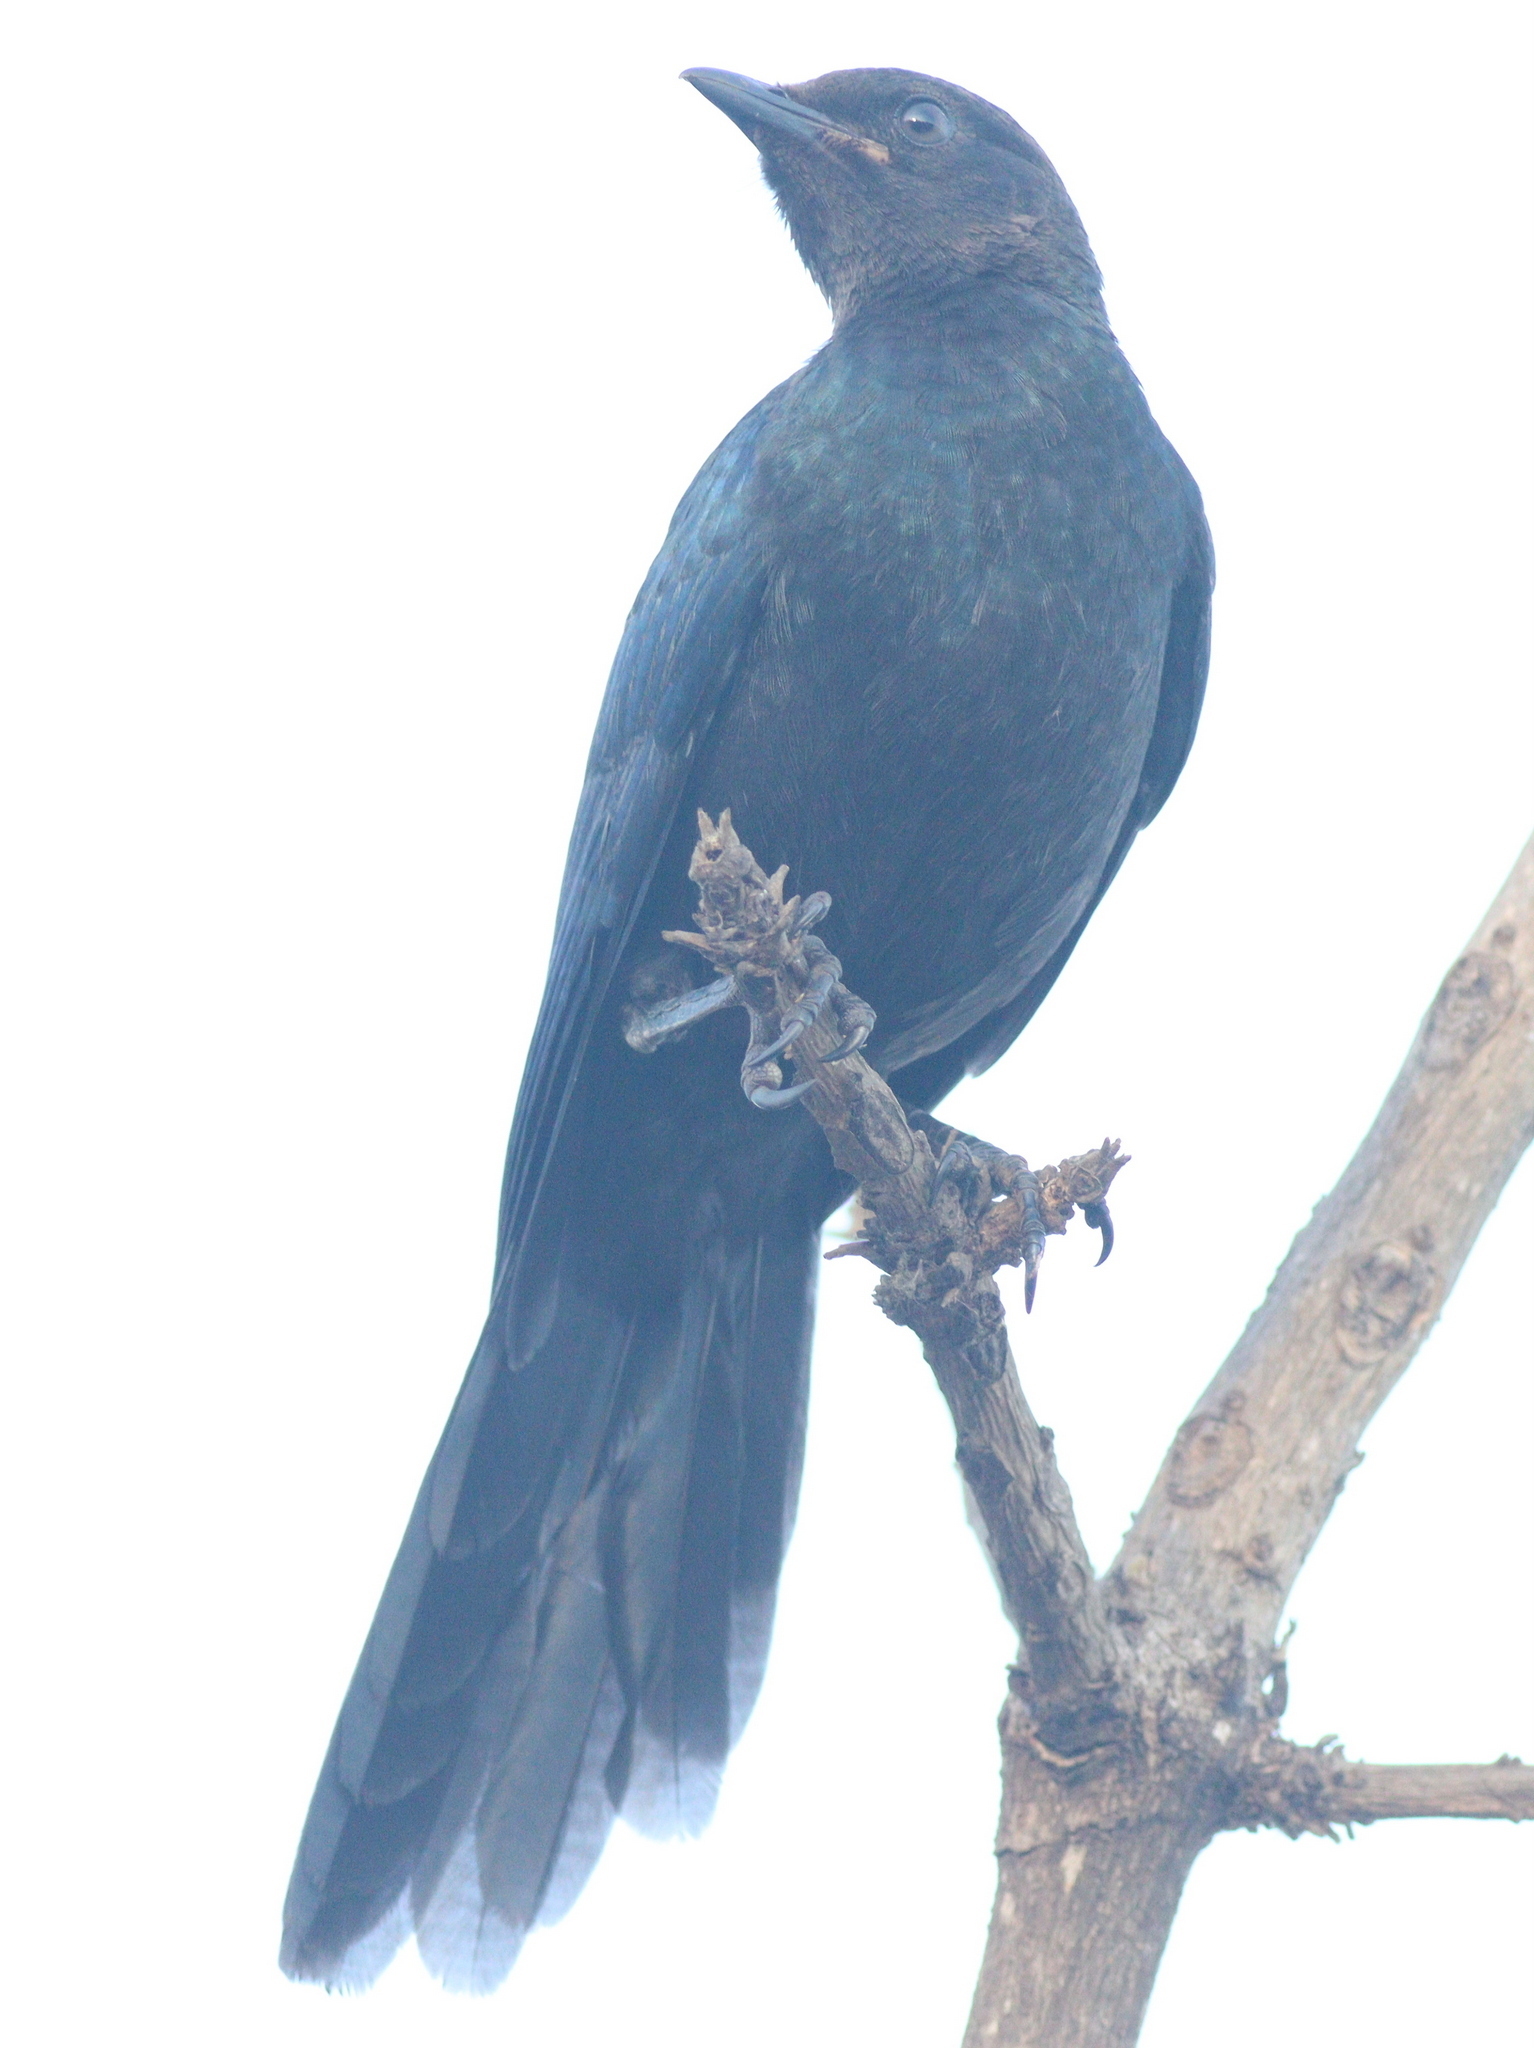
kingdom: Animalia
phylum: Chordata
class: Aves
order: Passeriformes
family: Campephagidae
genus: Campephaga
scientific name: Campephaga flava
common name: Black cuckooshrike
